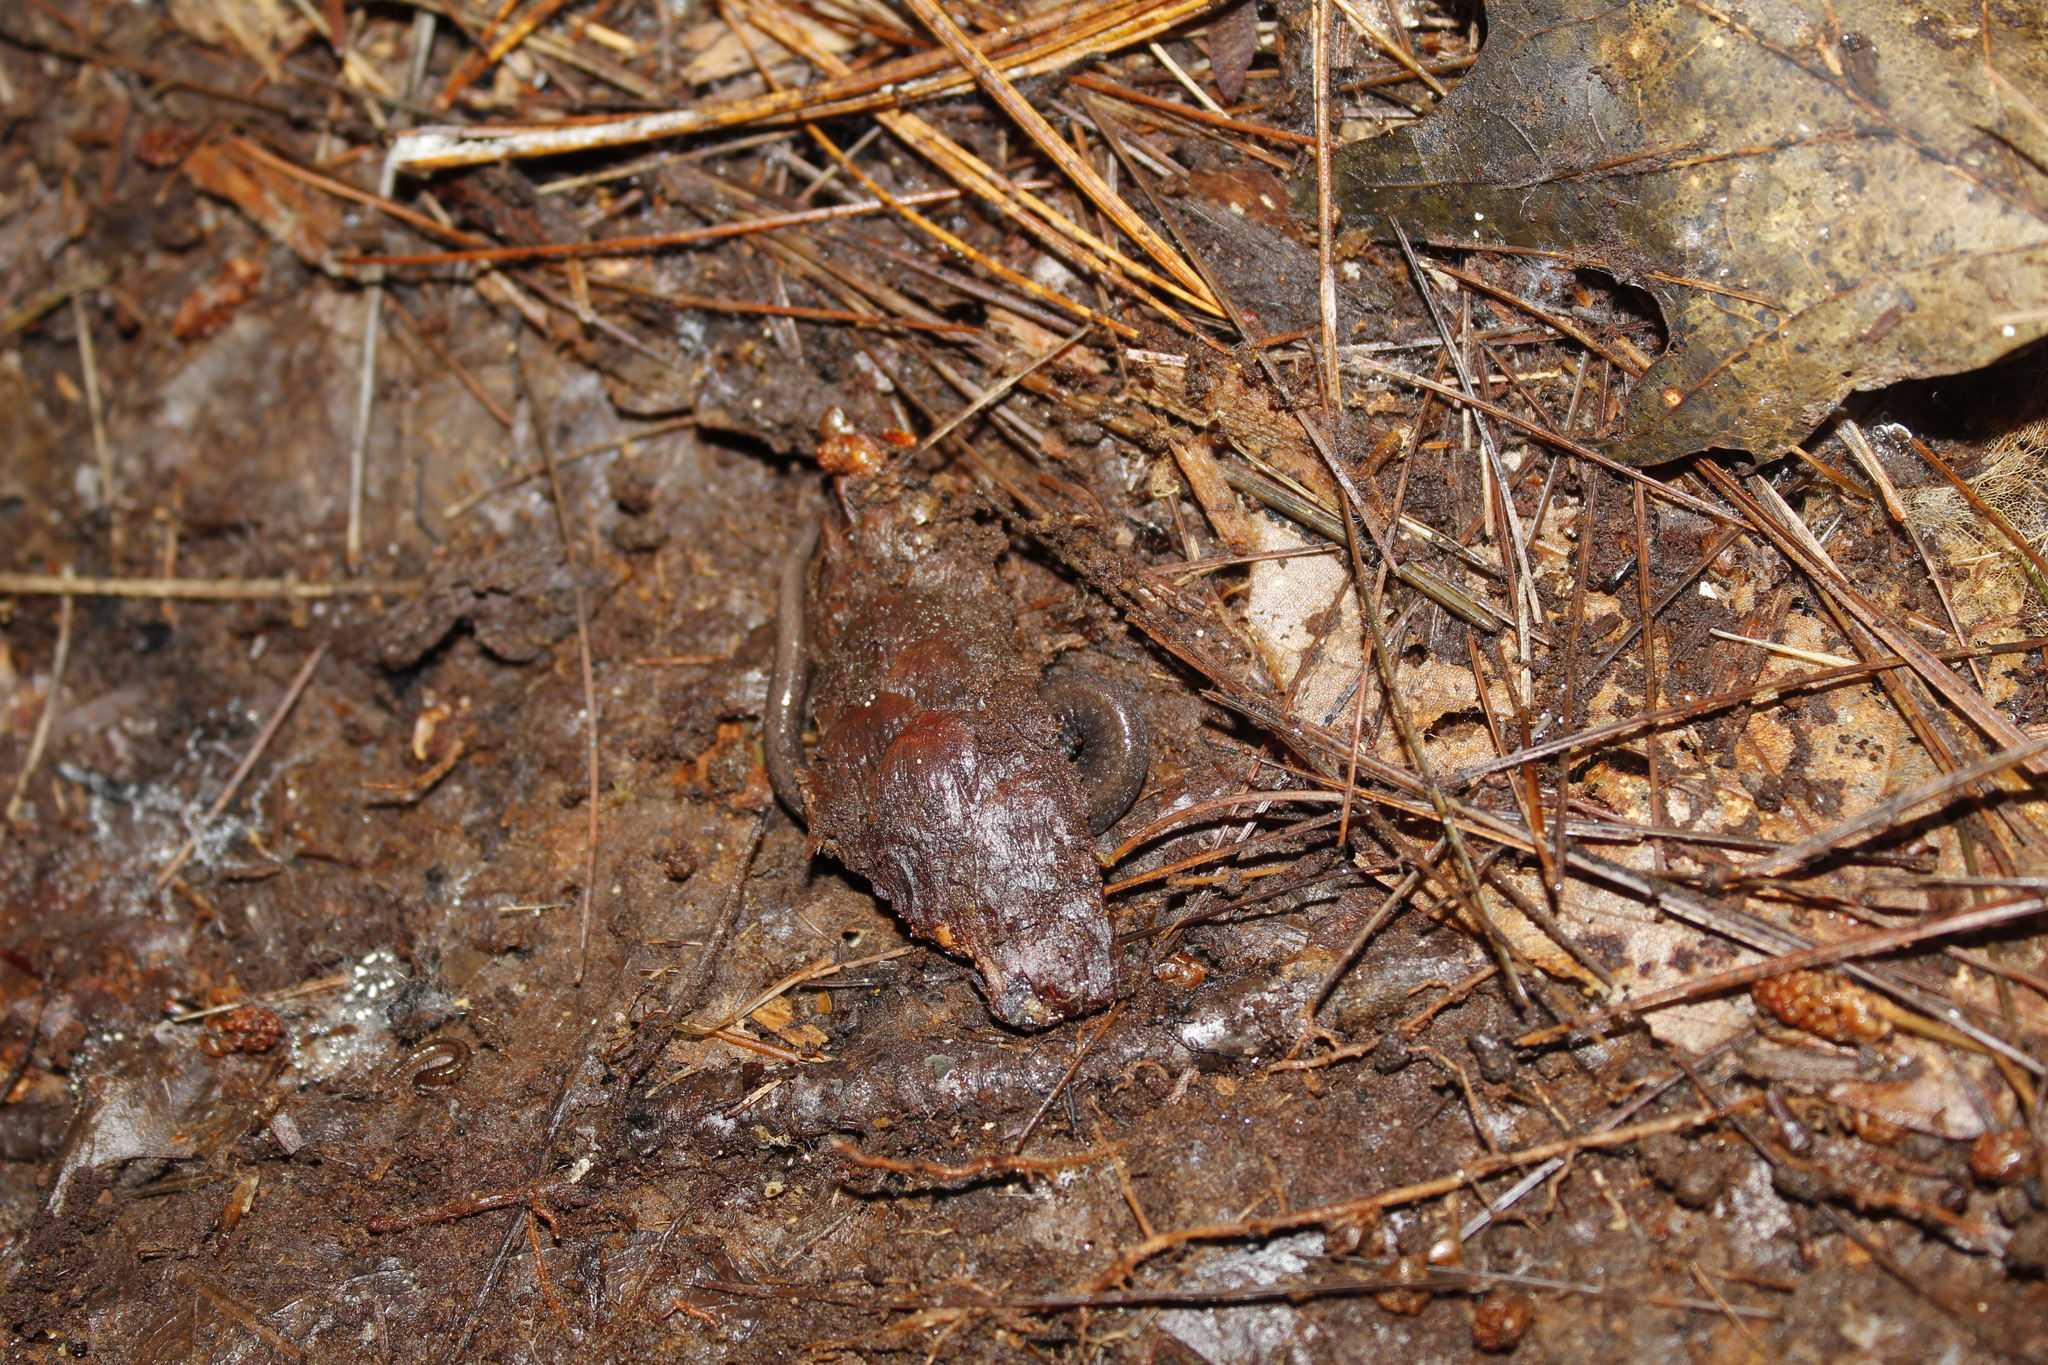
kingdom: Animalia
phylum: Chordata
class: Amphibia
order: Caudata
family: Plethodontidae
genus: Plethodon
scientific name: Plethodon cinereus
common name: Redback salamander
